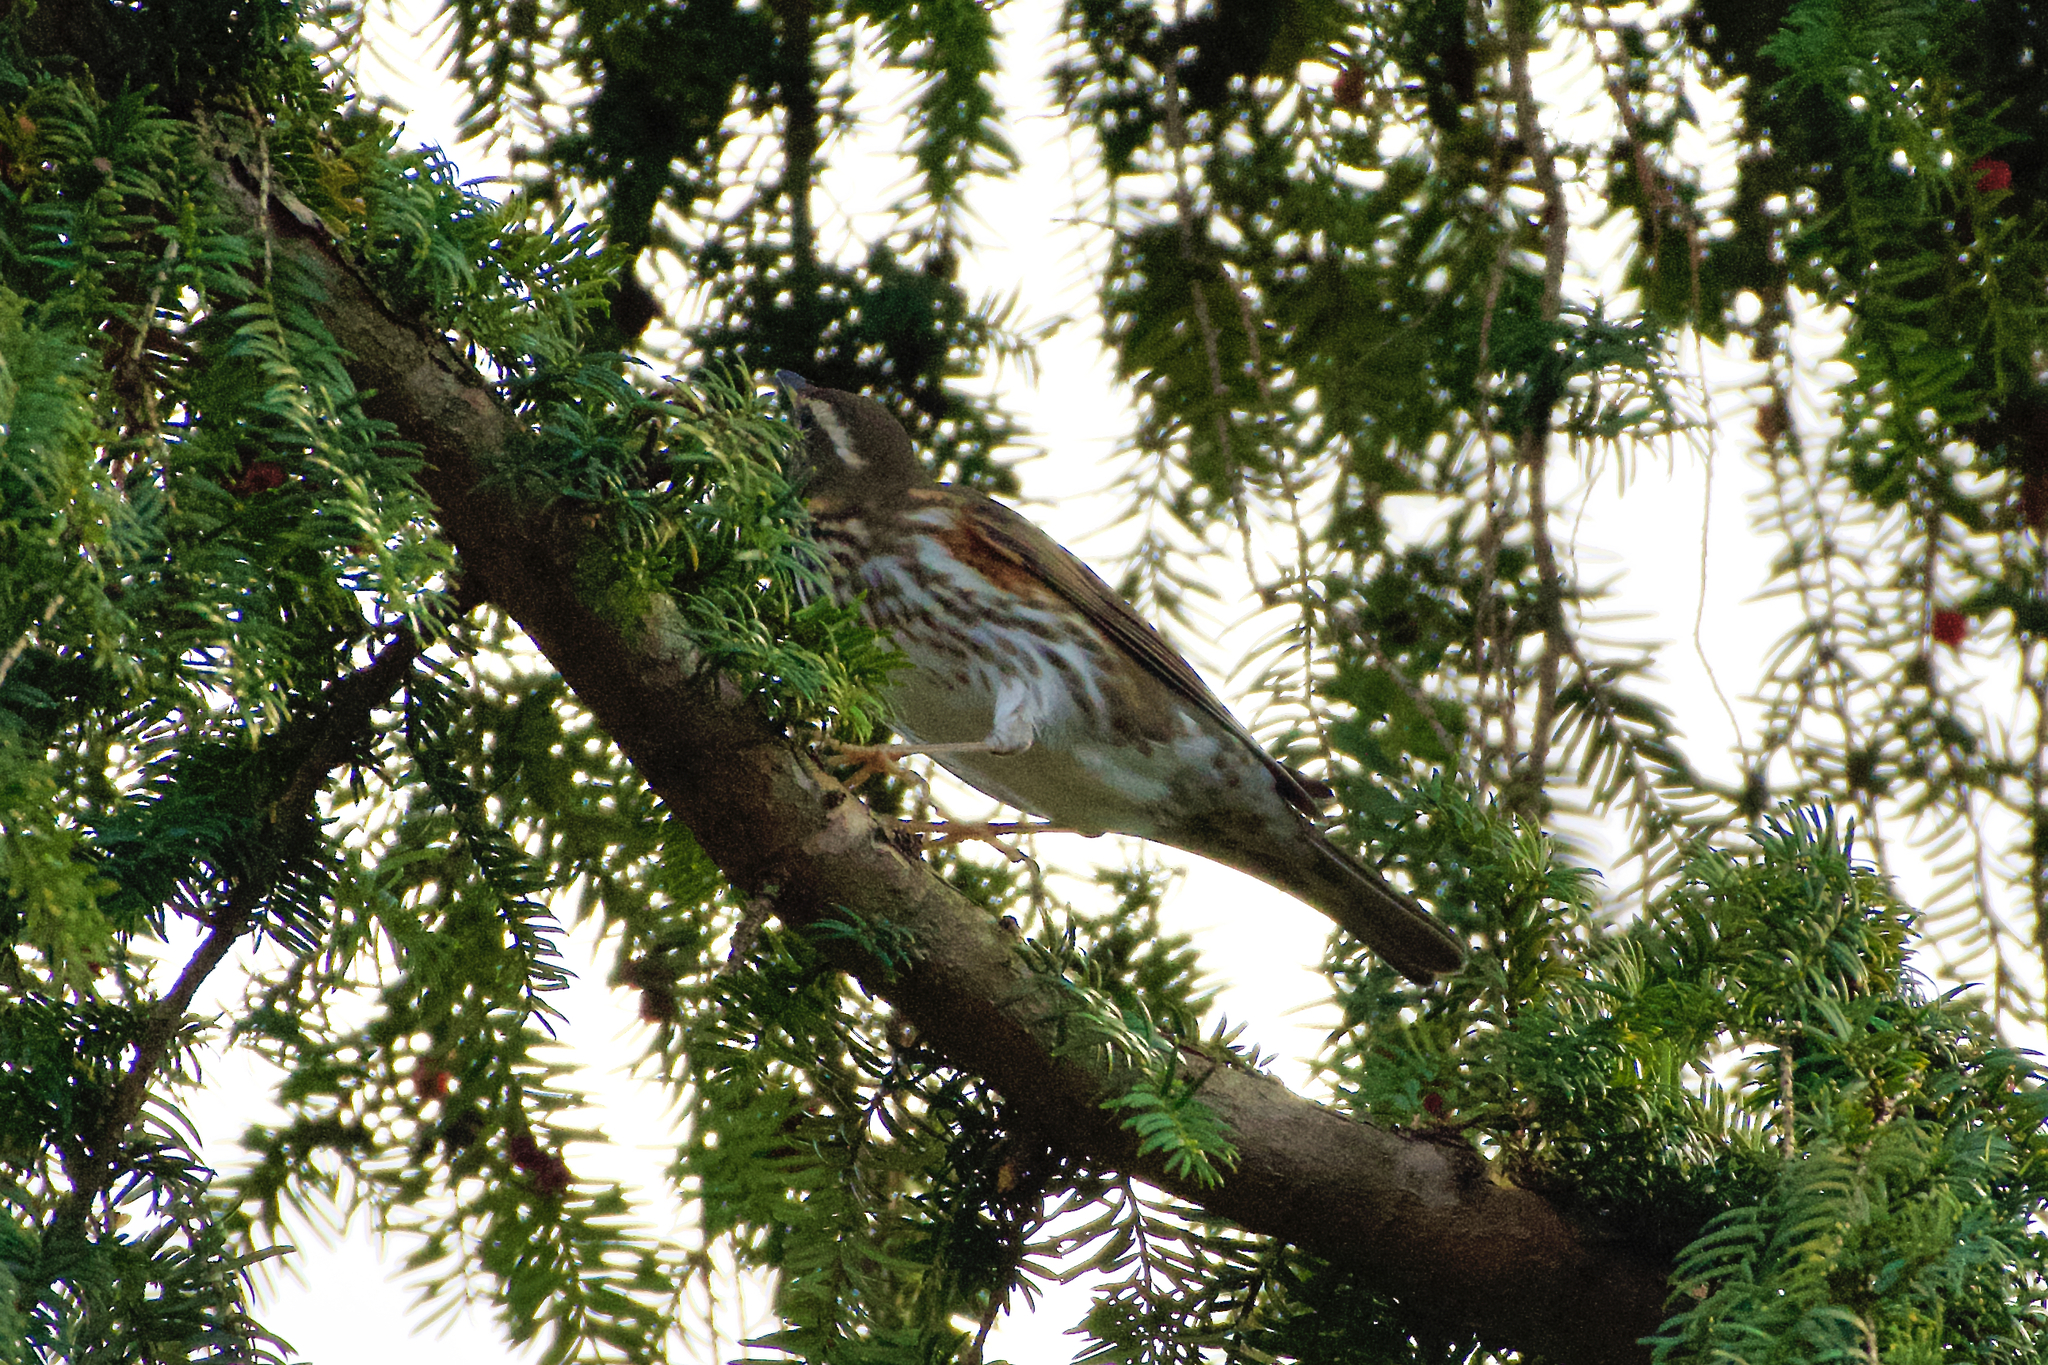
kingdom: Animalia
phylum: Chordata
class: Aves
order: Passeriformes
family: Turdidae
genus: Turdus
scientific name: Turdus iliacus
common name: Redwing
